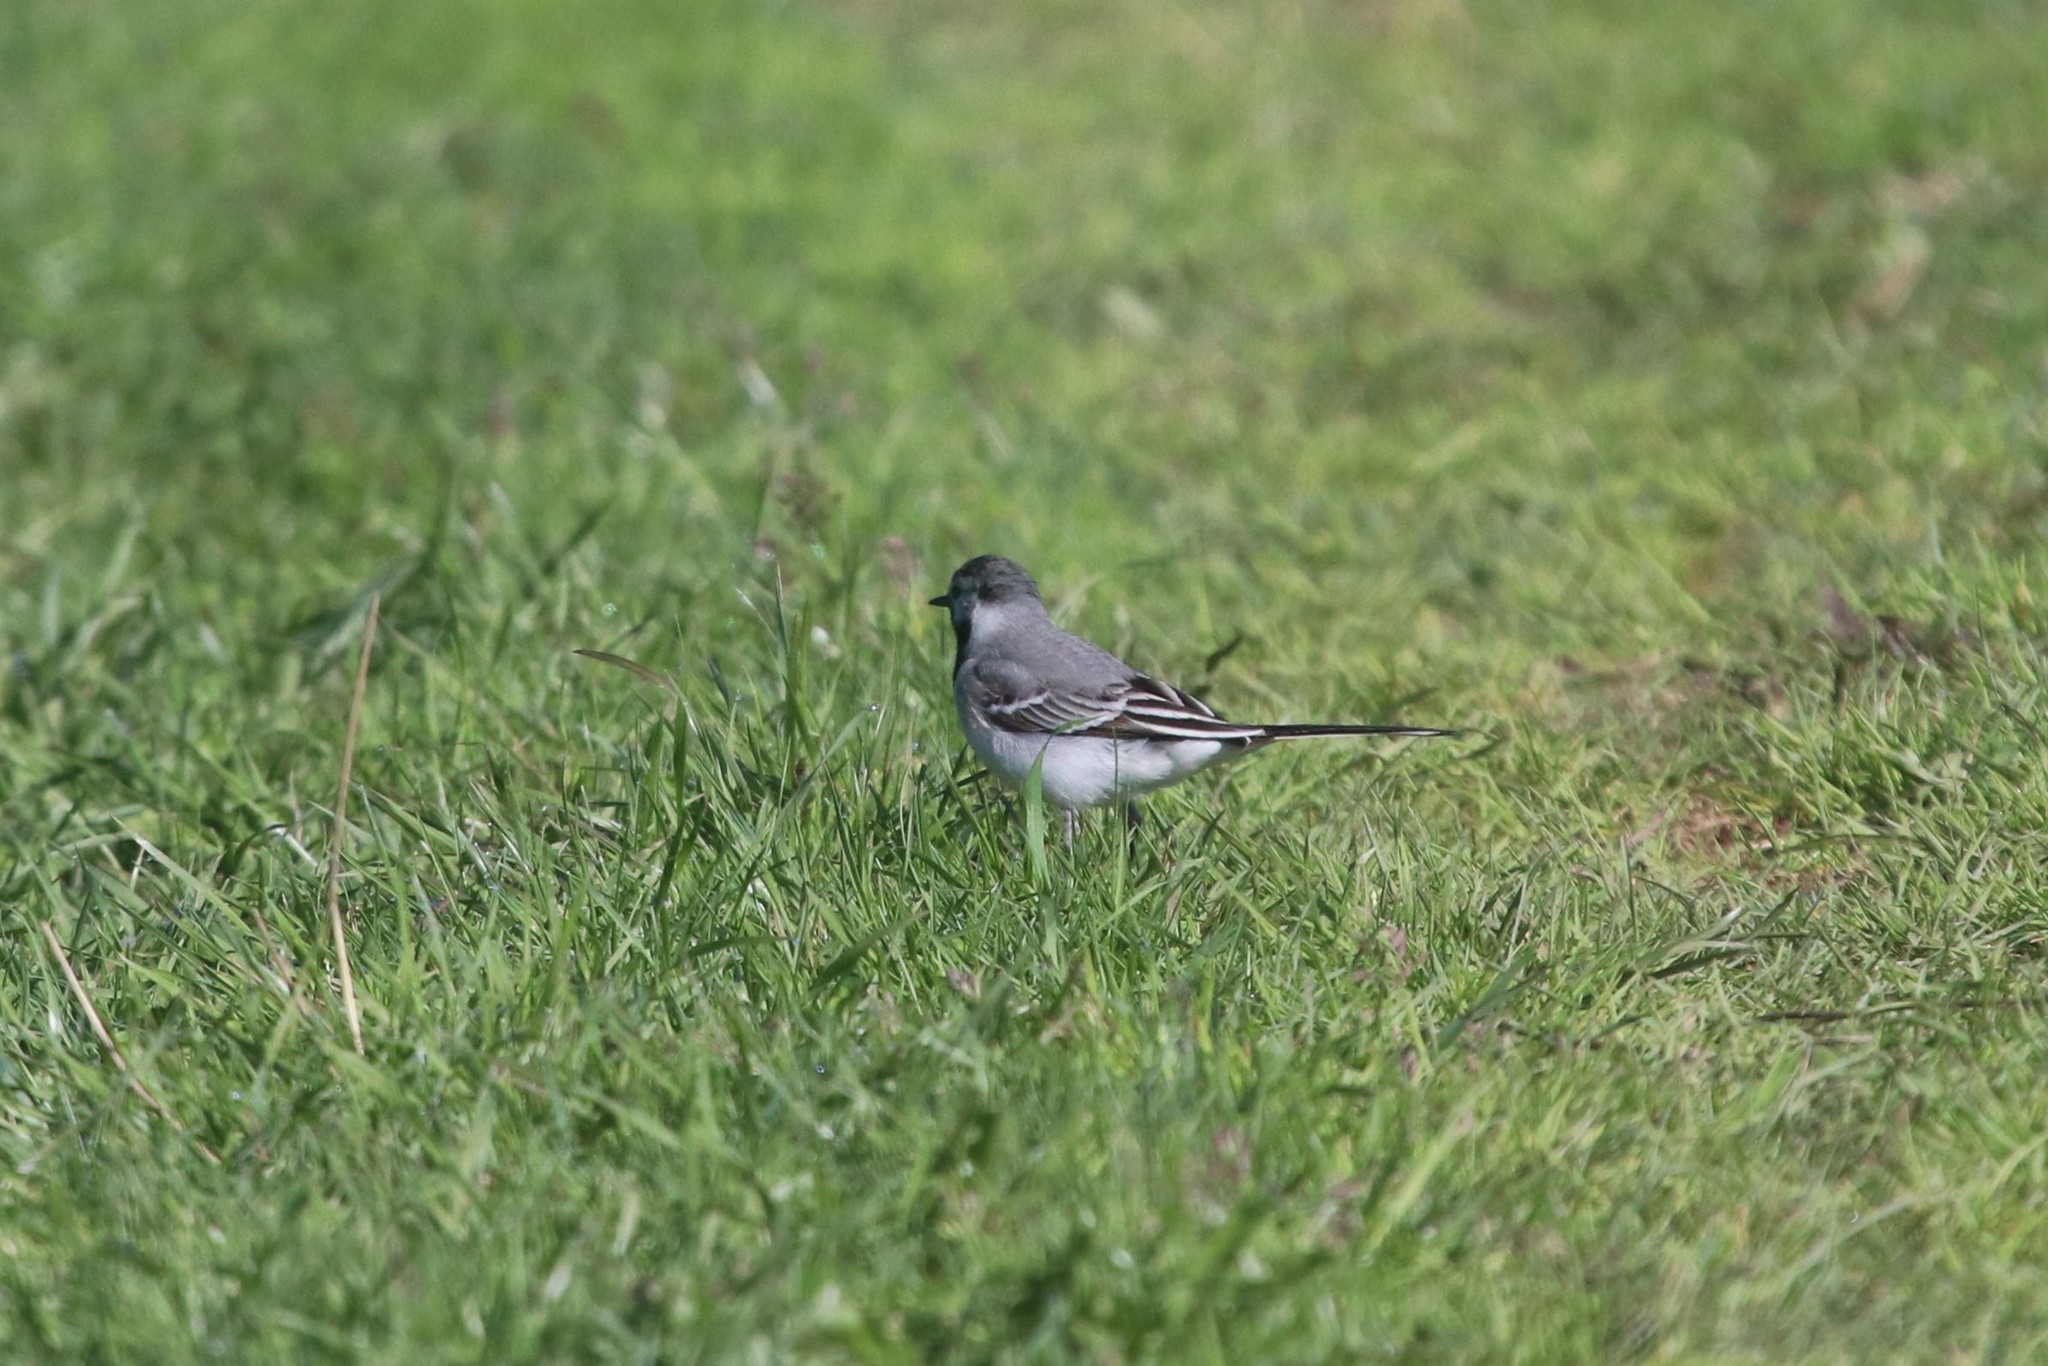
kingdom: Animalia
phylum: Chordata
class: Aves
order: Passeriformes
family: Motacillidae
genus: Motacilla
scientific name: Motacilla alba
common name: White wagtail
